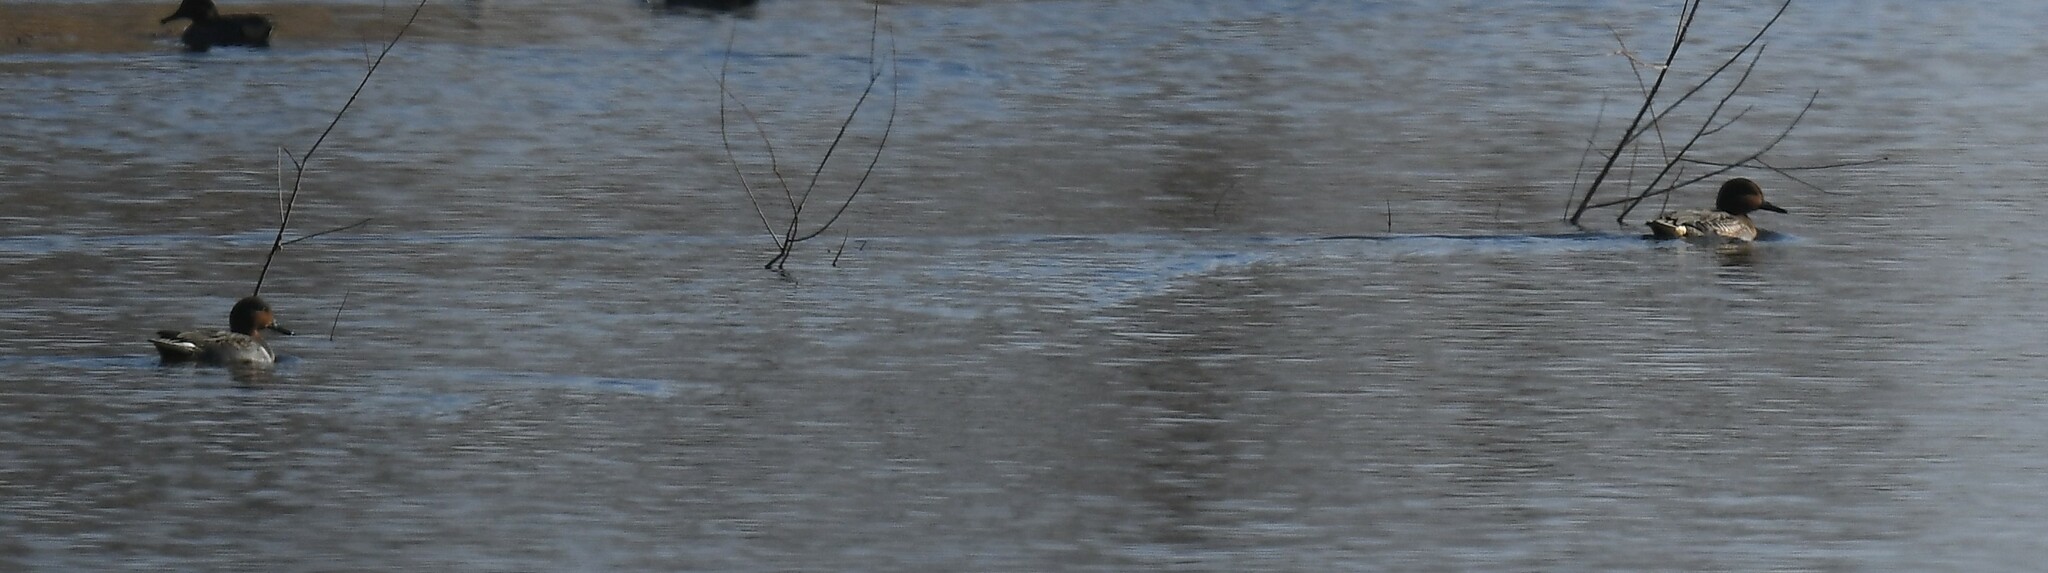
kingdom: Animalia
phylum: Chordata
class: Aves
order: Anseriformes
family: Anatidae
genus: Anas
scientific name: Anas crecca
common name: Eurasian teal
